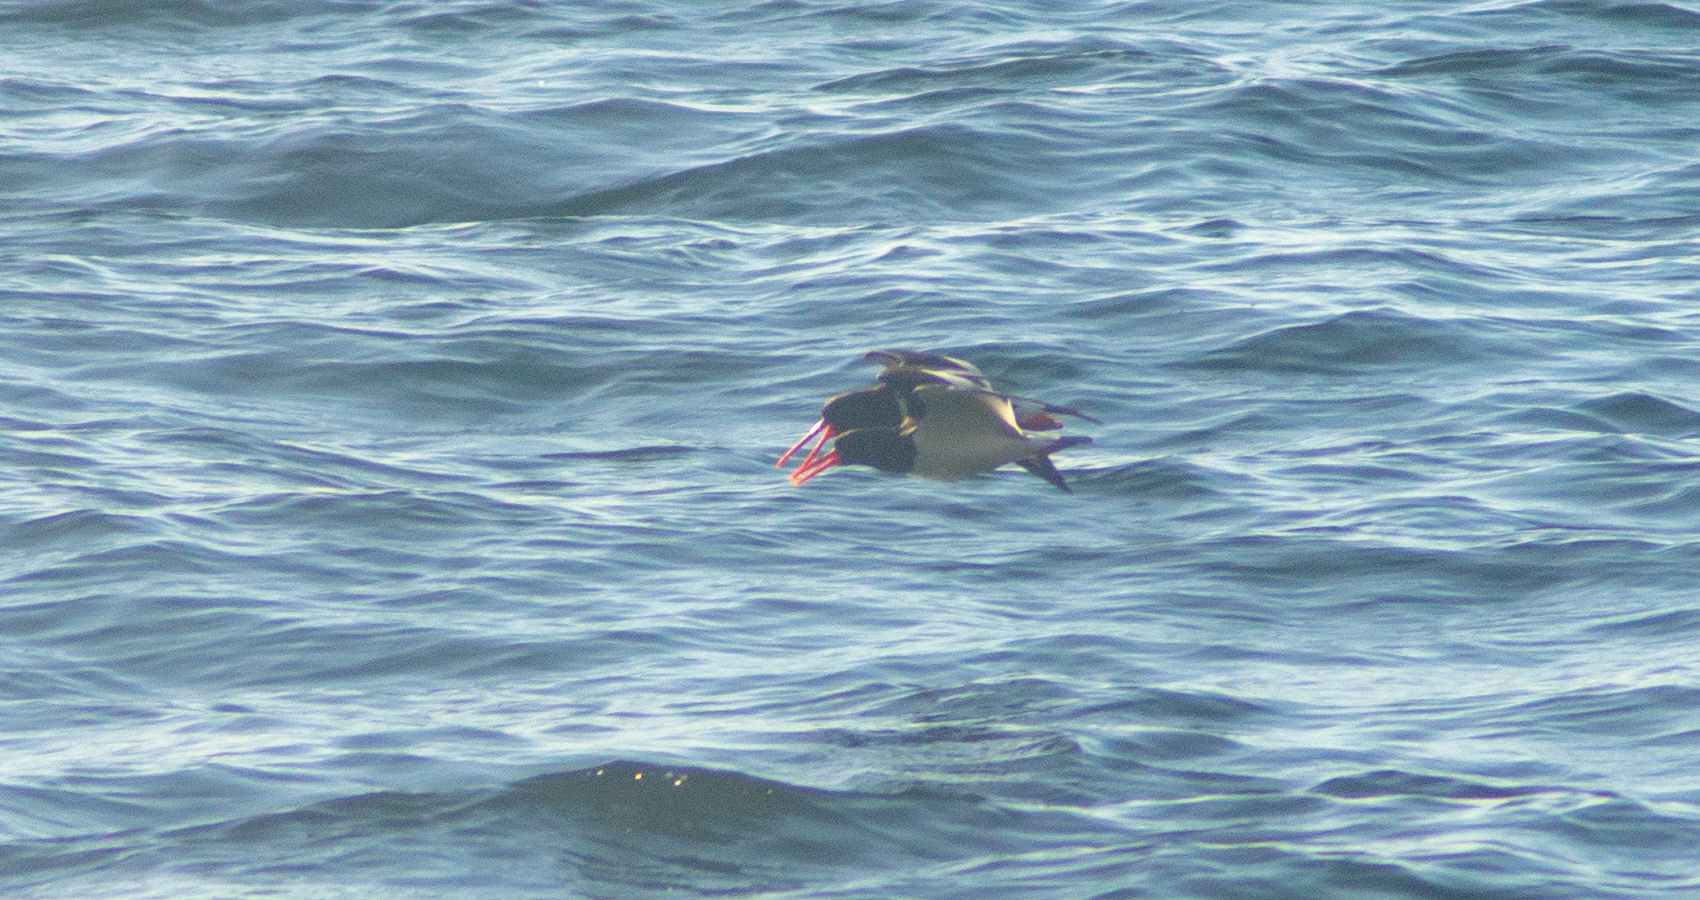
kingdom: Animalia
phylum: Chordata
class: Aves
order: Charadriiformes
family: Haematopodidae
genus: Haematopus
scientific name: Haematopus ostralegus
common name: Eurasian oystercatcher
